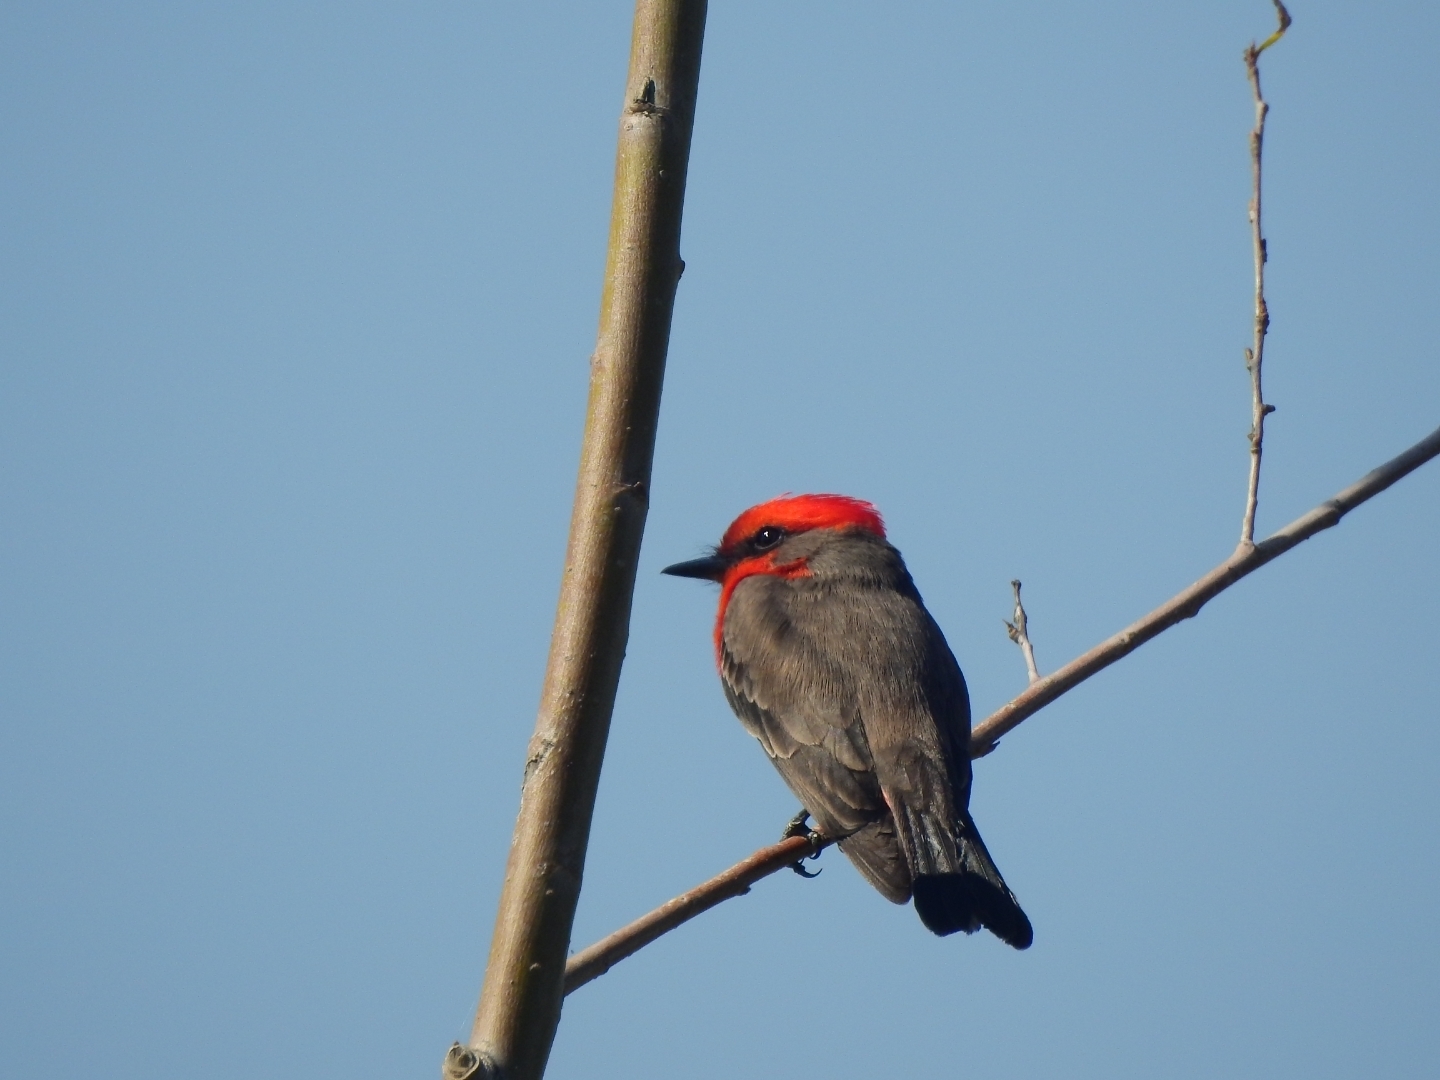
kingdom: Animalia
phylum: Chordata
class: Aves
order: Passeriformes
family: Tyrannidae
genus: Pyrocephalus
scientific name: Pyrocephalus rubinus
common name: Vermilion flycatcher
